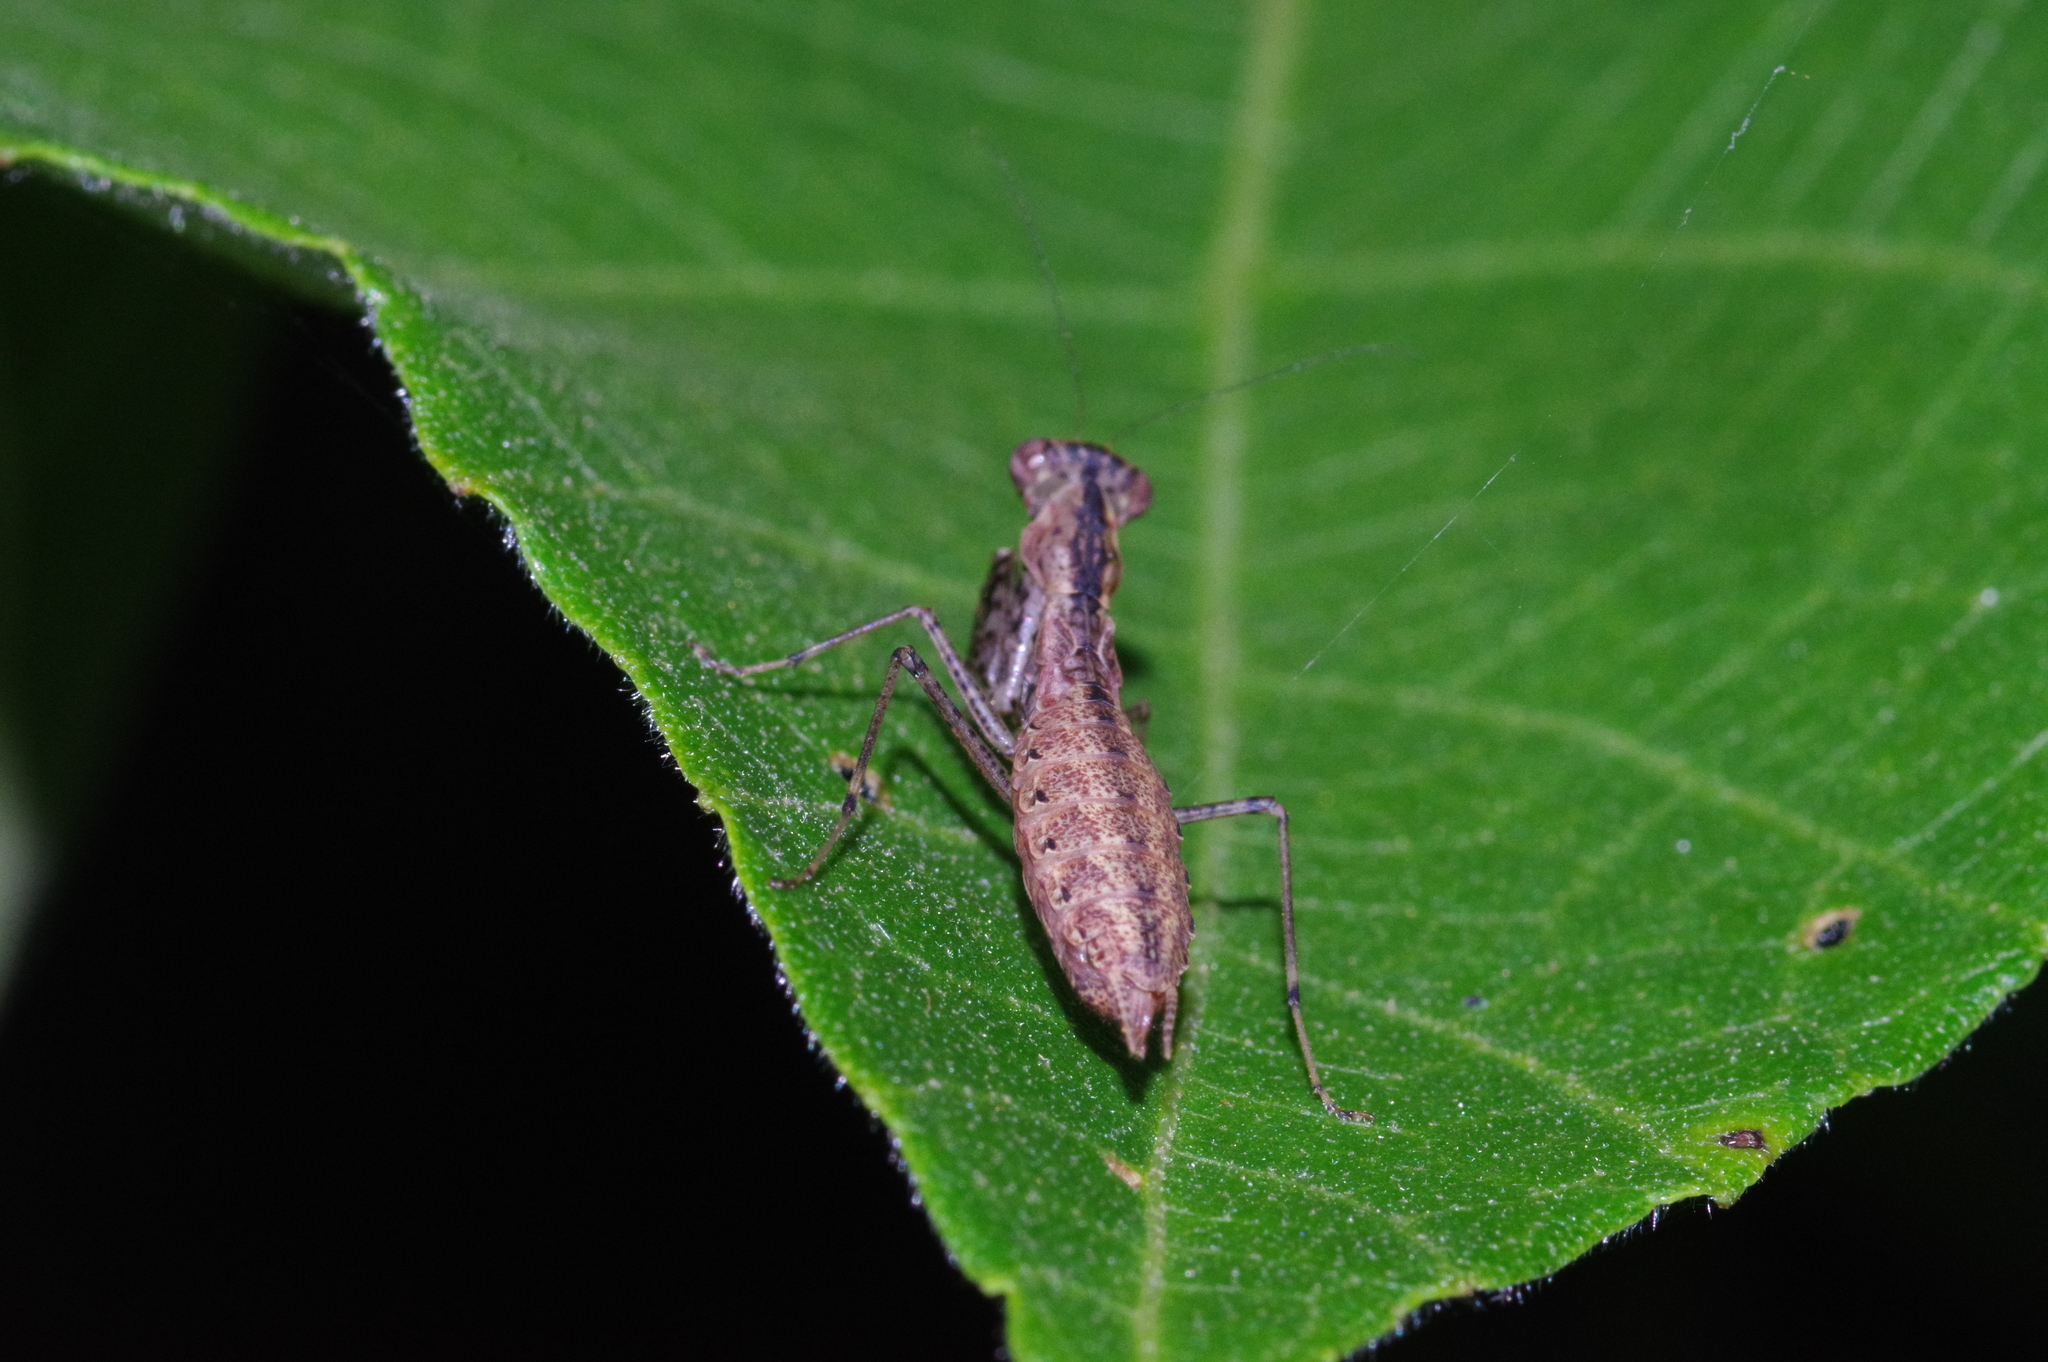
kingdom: Animalia
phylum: Arthropoda
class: Insecta
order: Mantodea
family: Gonypetidae
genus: Amantis
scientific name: Amantis nawai
